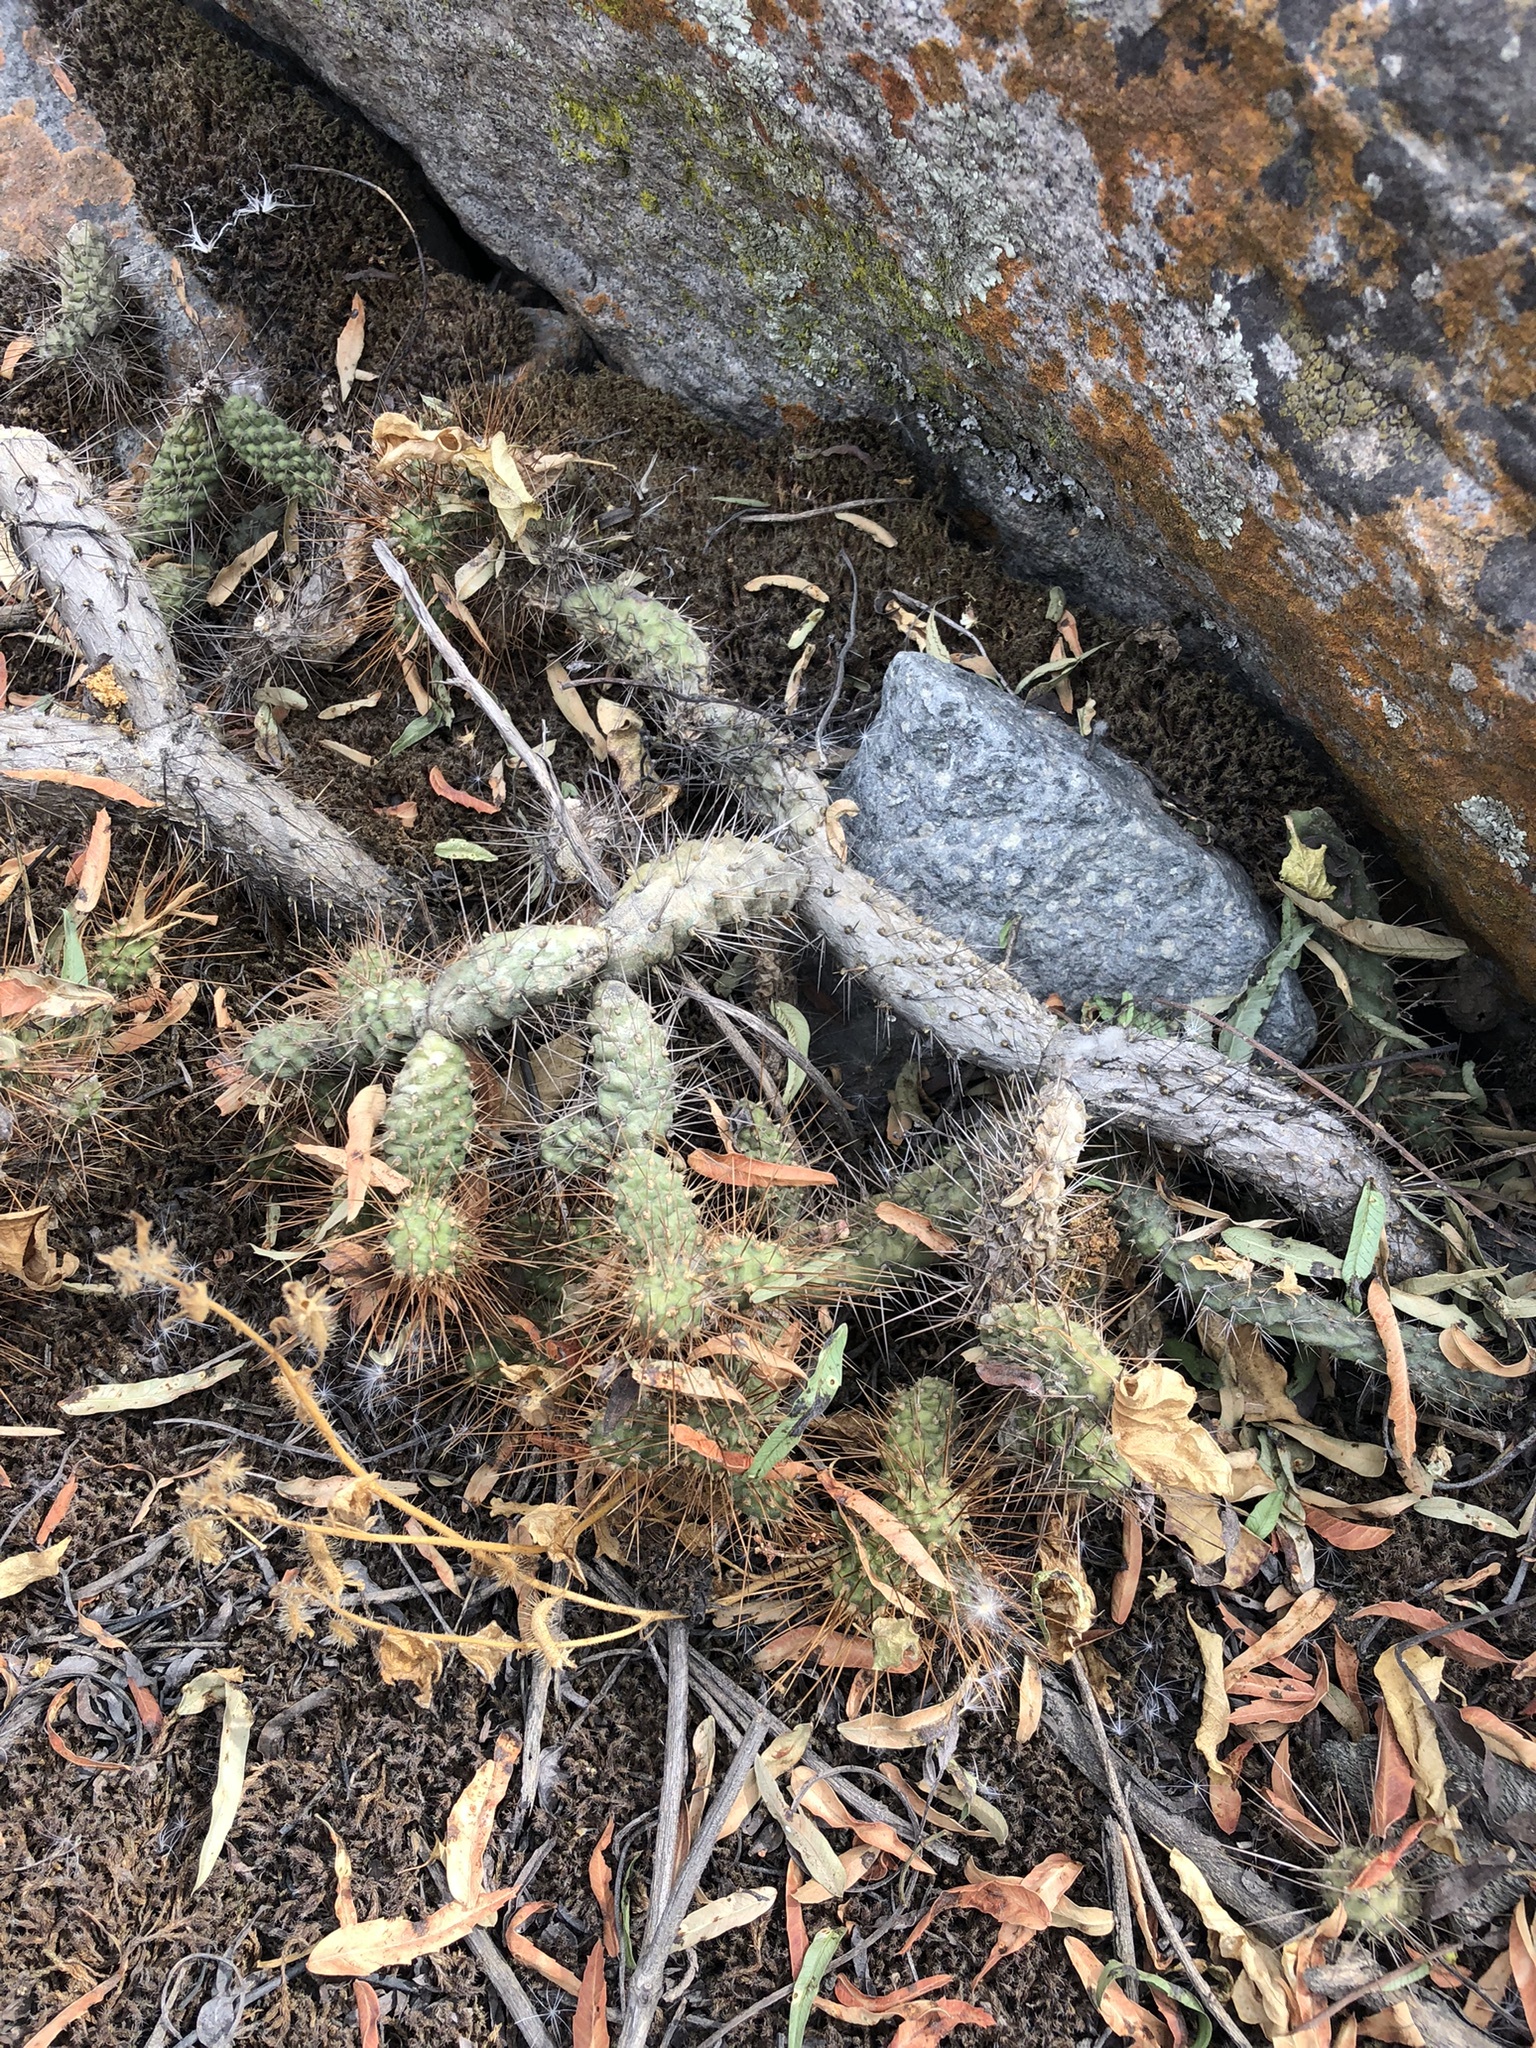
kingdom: Plantae
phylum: Tracheophyta
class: Magnoliopsida
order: Caryophyllales
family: Cactaceae
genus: Opuntia
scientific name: Opuntia pubescens
